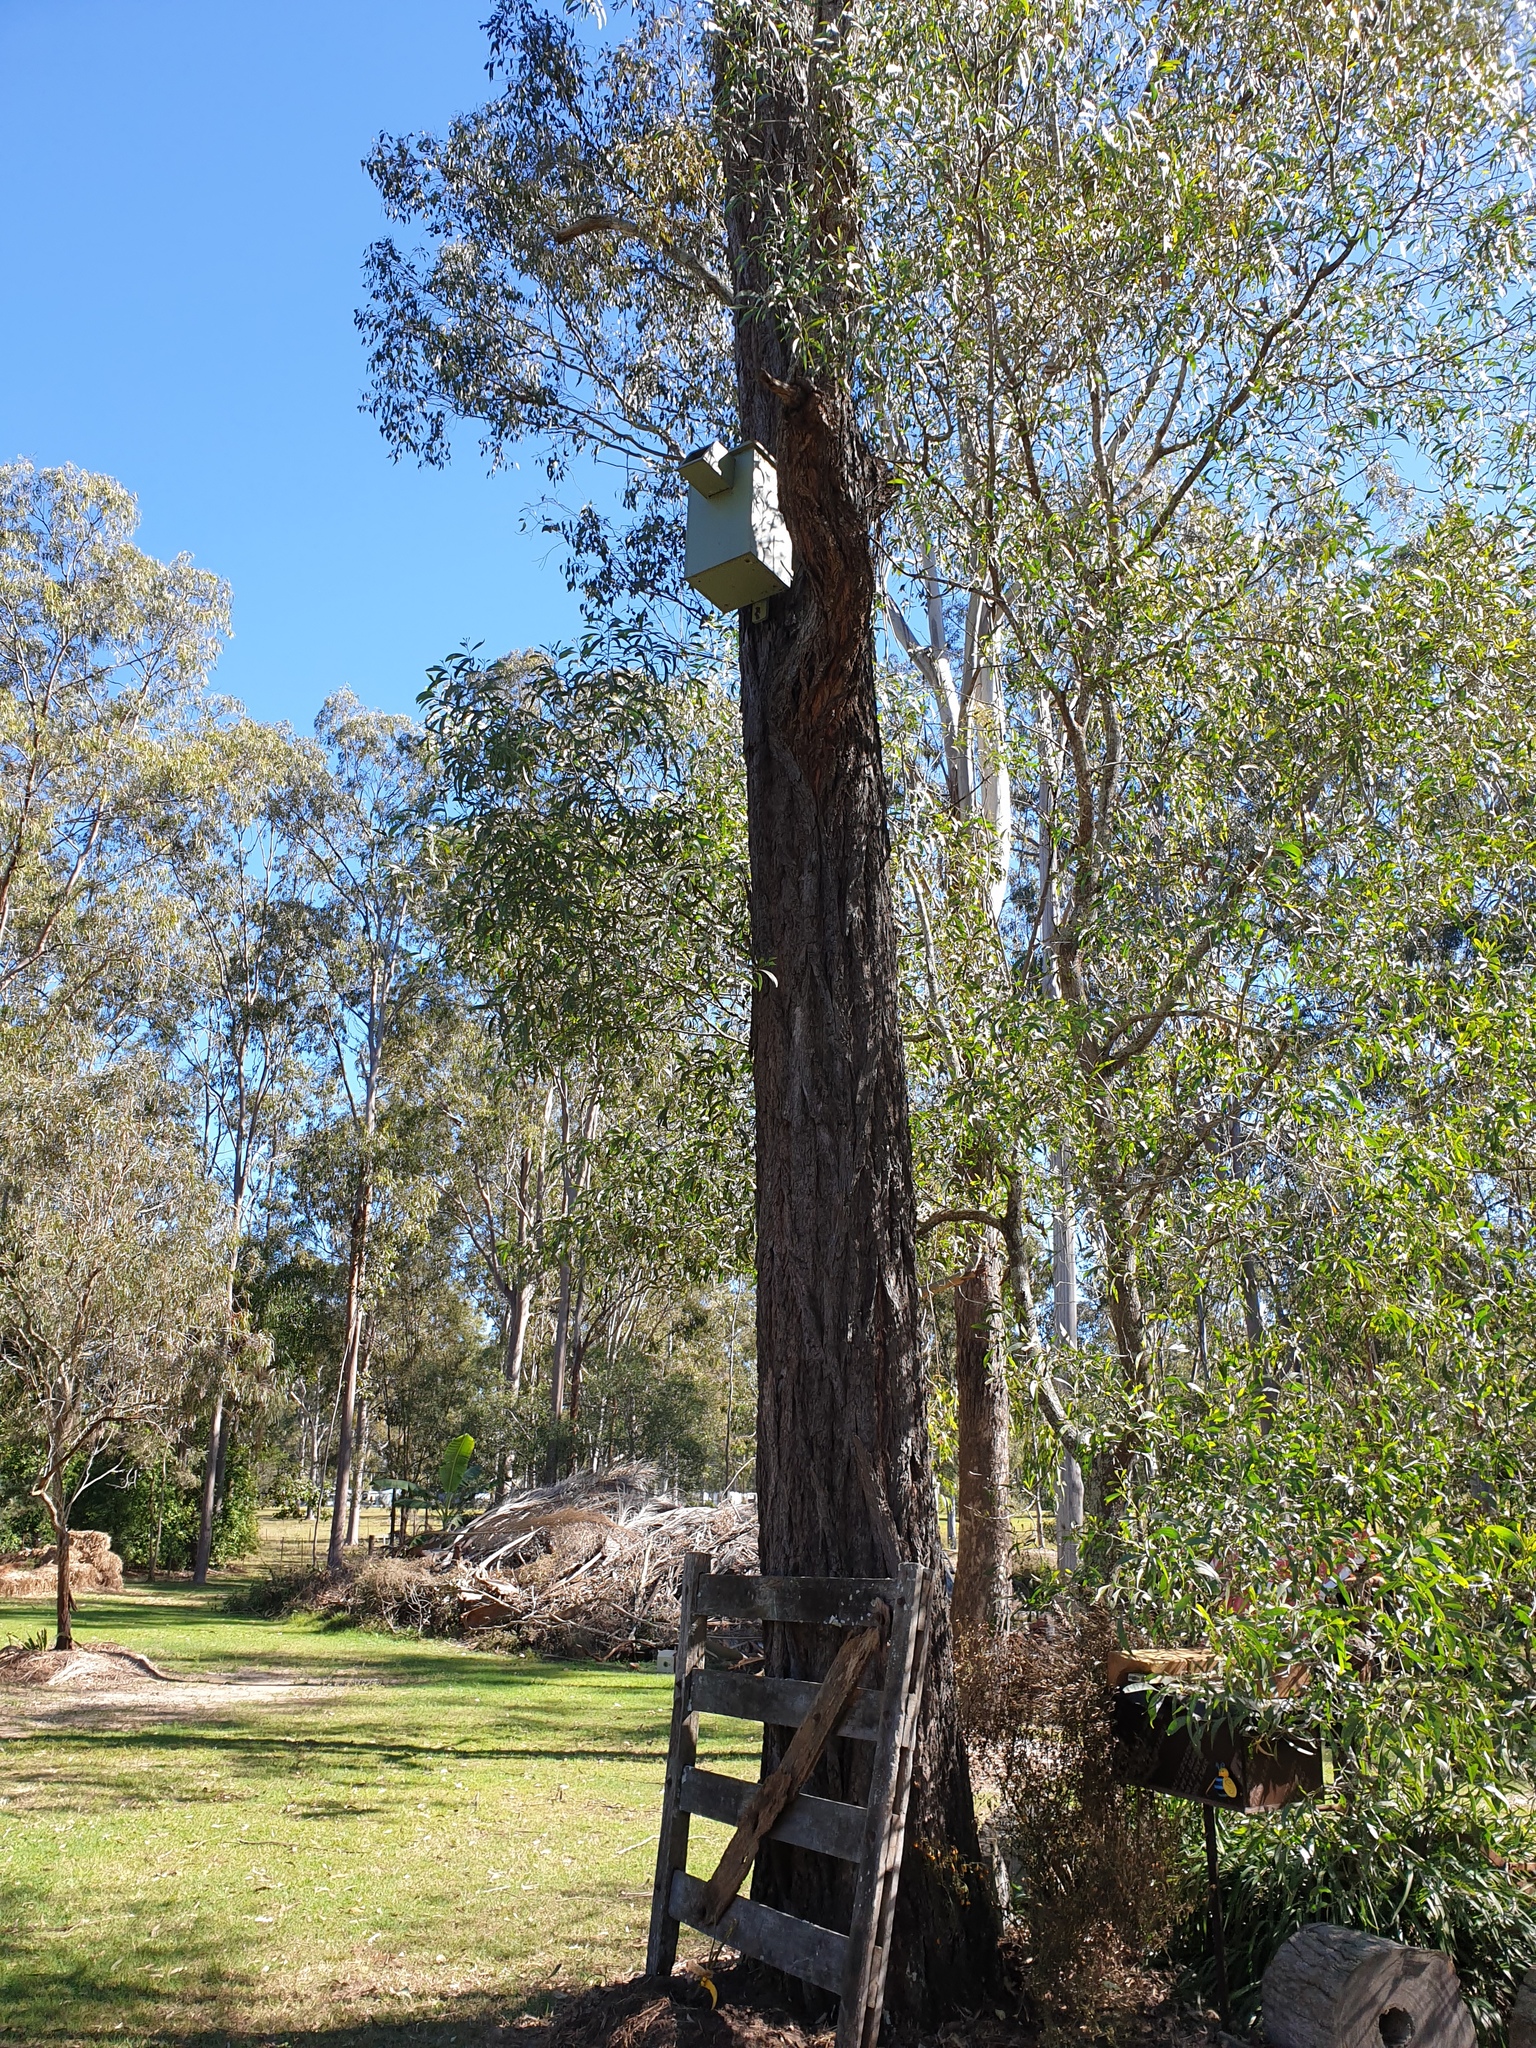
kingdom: Plantae
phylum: Tracheophyta
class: Magnoliopsida
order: Myrtales
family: Myrtaceae
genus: Eucalyptus
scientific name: Eucalyptus crebra
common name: Narrowleaf red ironbark
